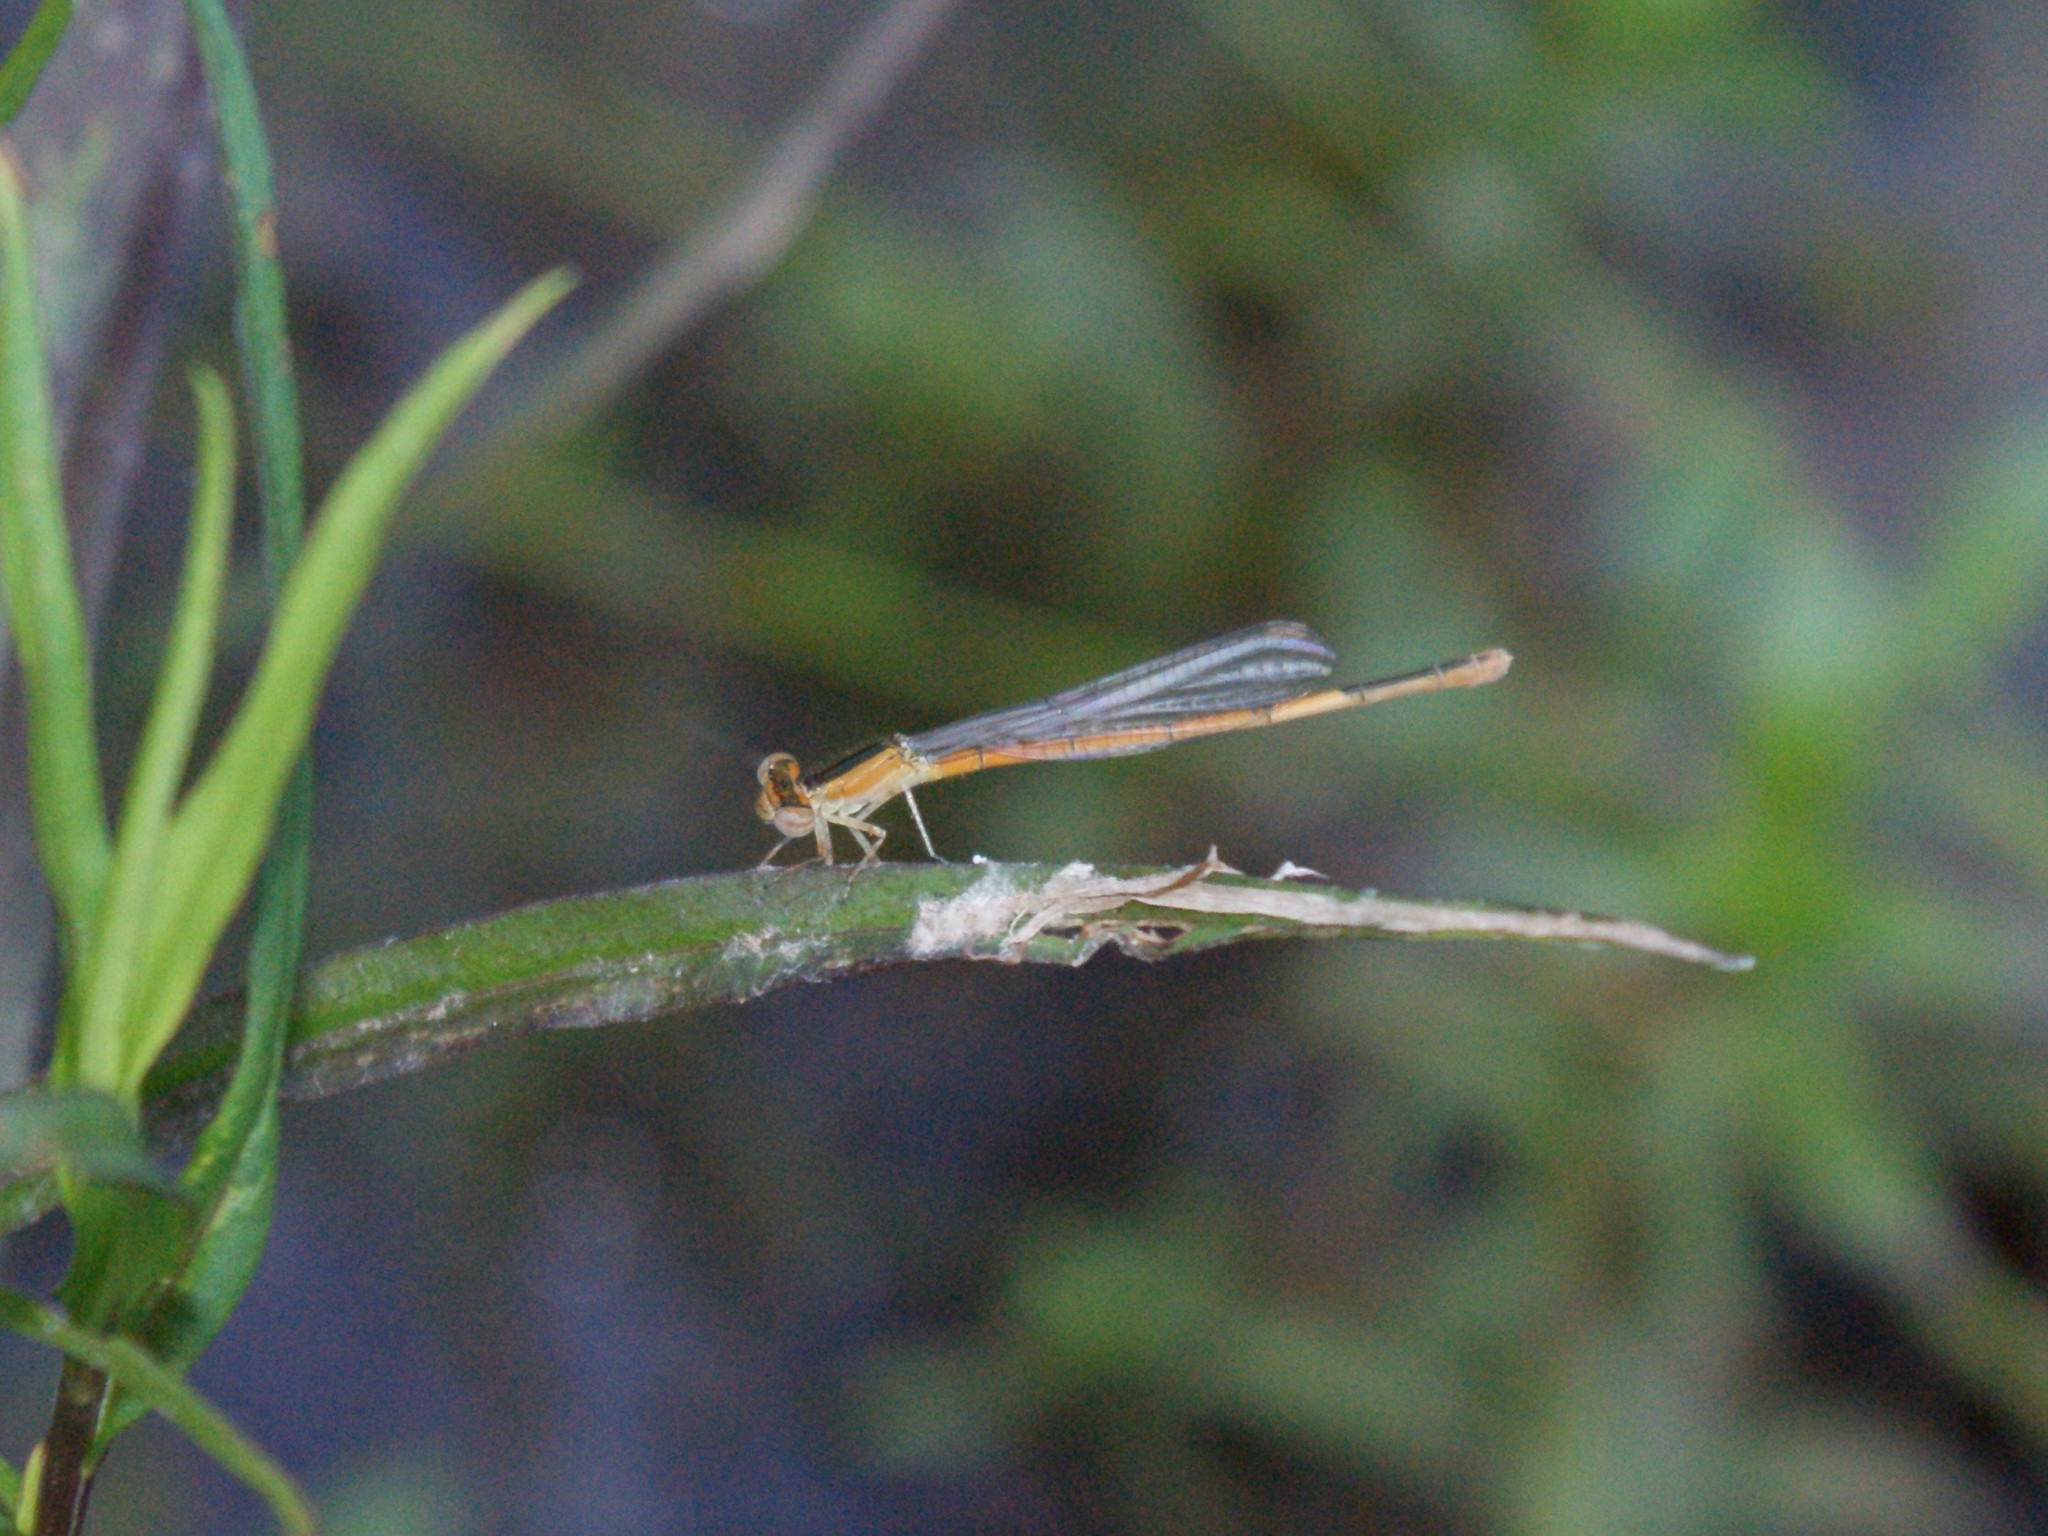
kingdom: Animalia
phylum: Arthropoda
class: Insecta
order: Odonata
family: Coenagrionidae
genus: Ischnura
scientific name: Ischnura hastata
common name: Citrine forktail
